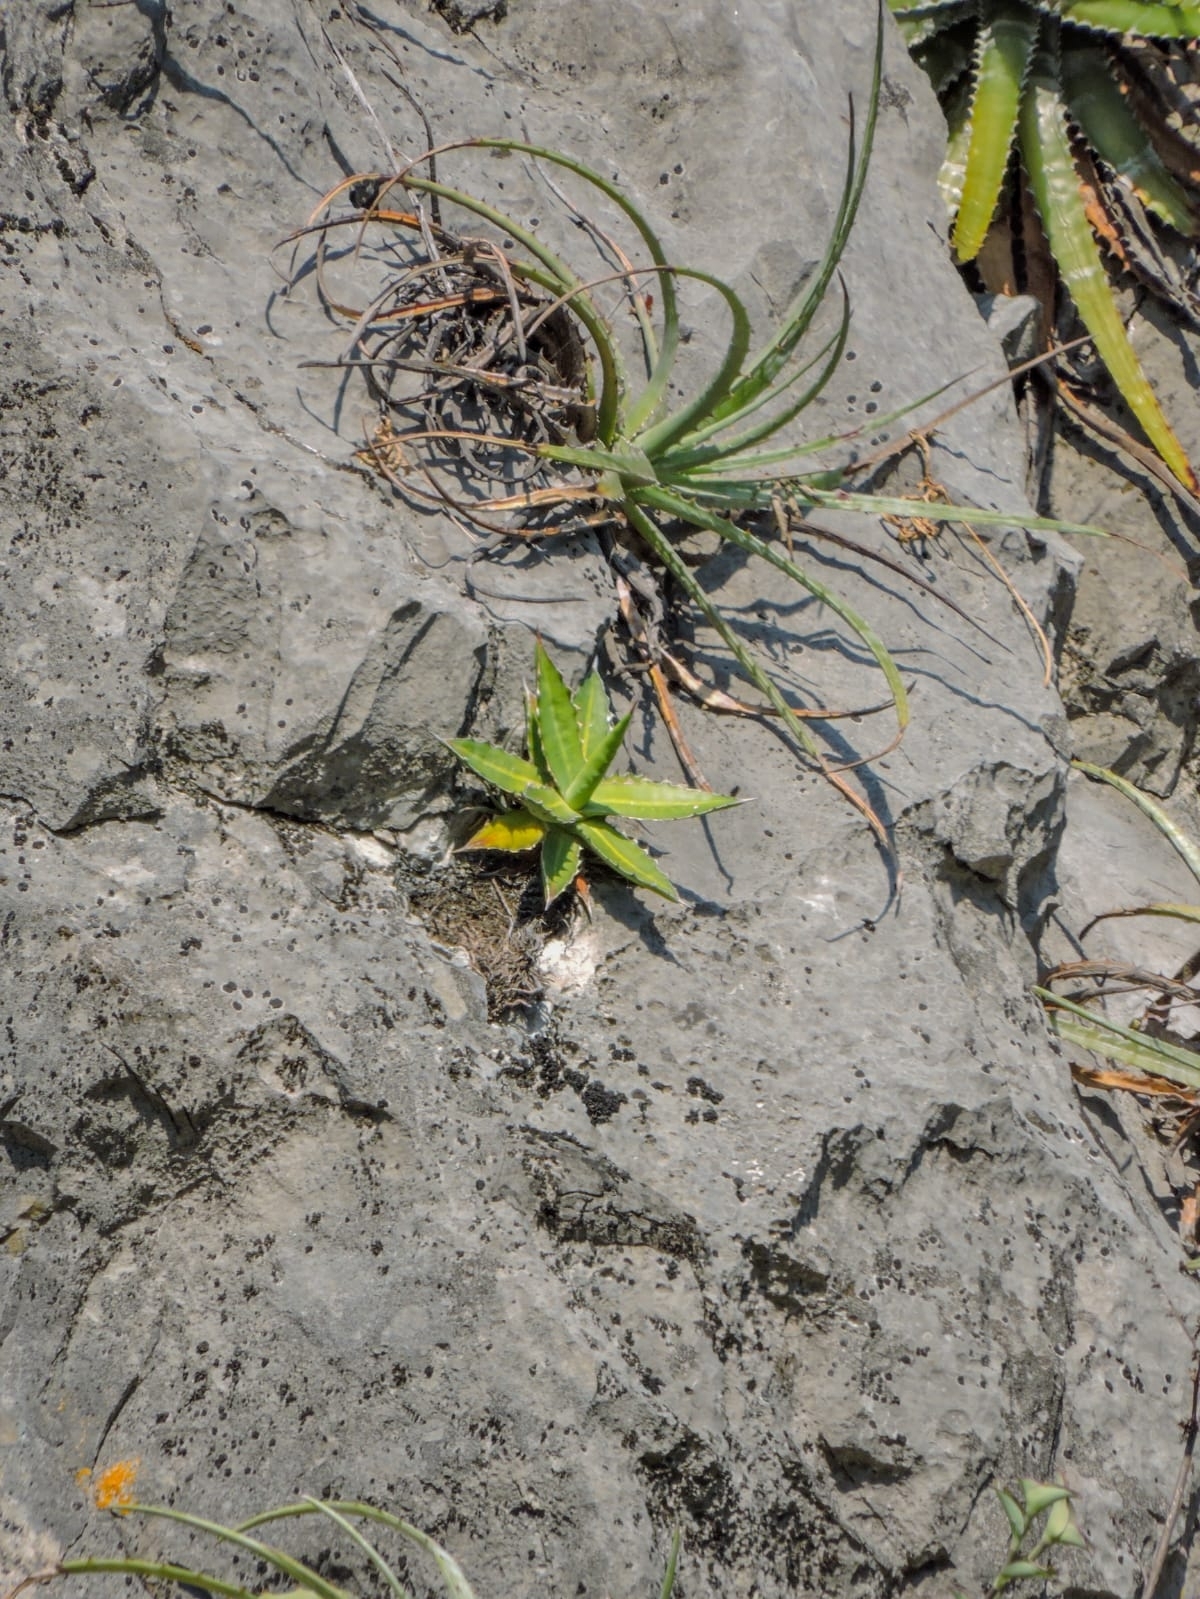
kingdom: Plantae
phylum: Tracheophyta
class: Liliopsida
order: Asparagales
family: Asparagaceae
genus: Agave
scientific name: Agave univittata
